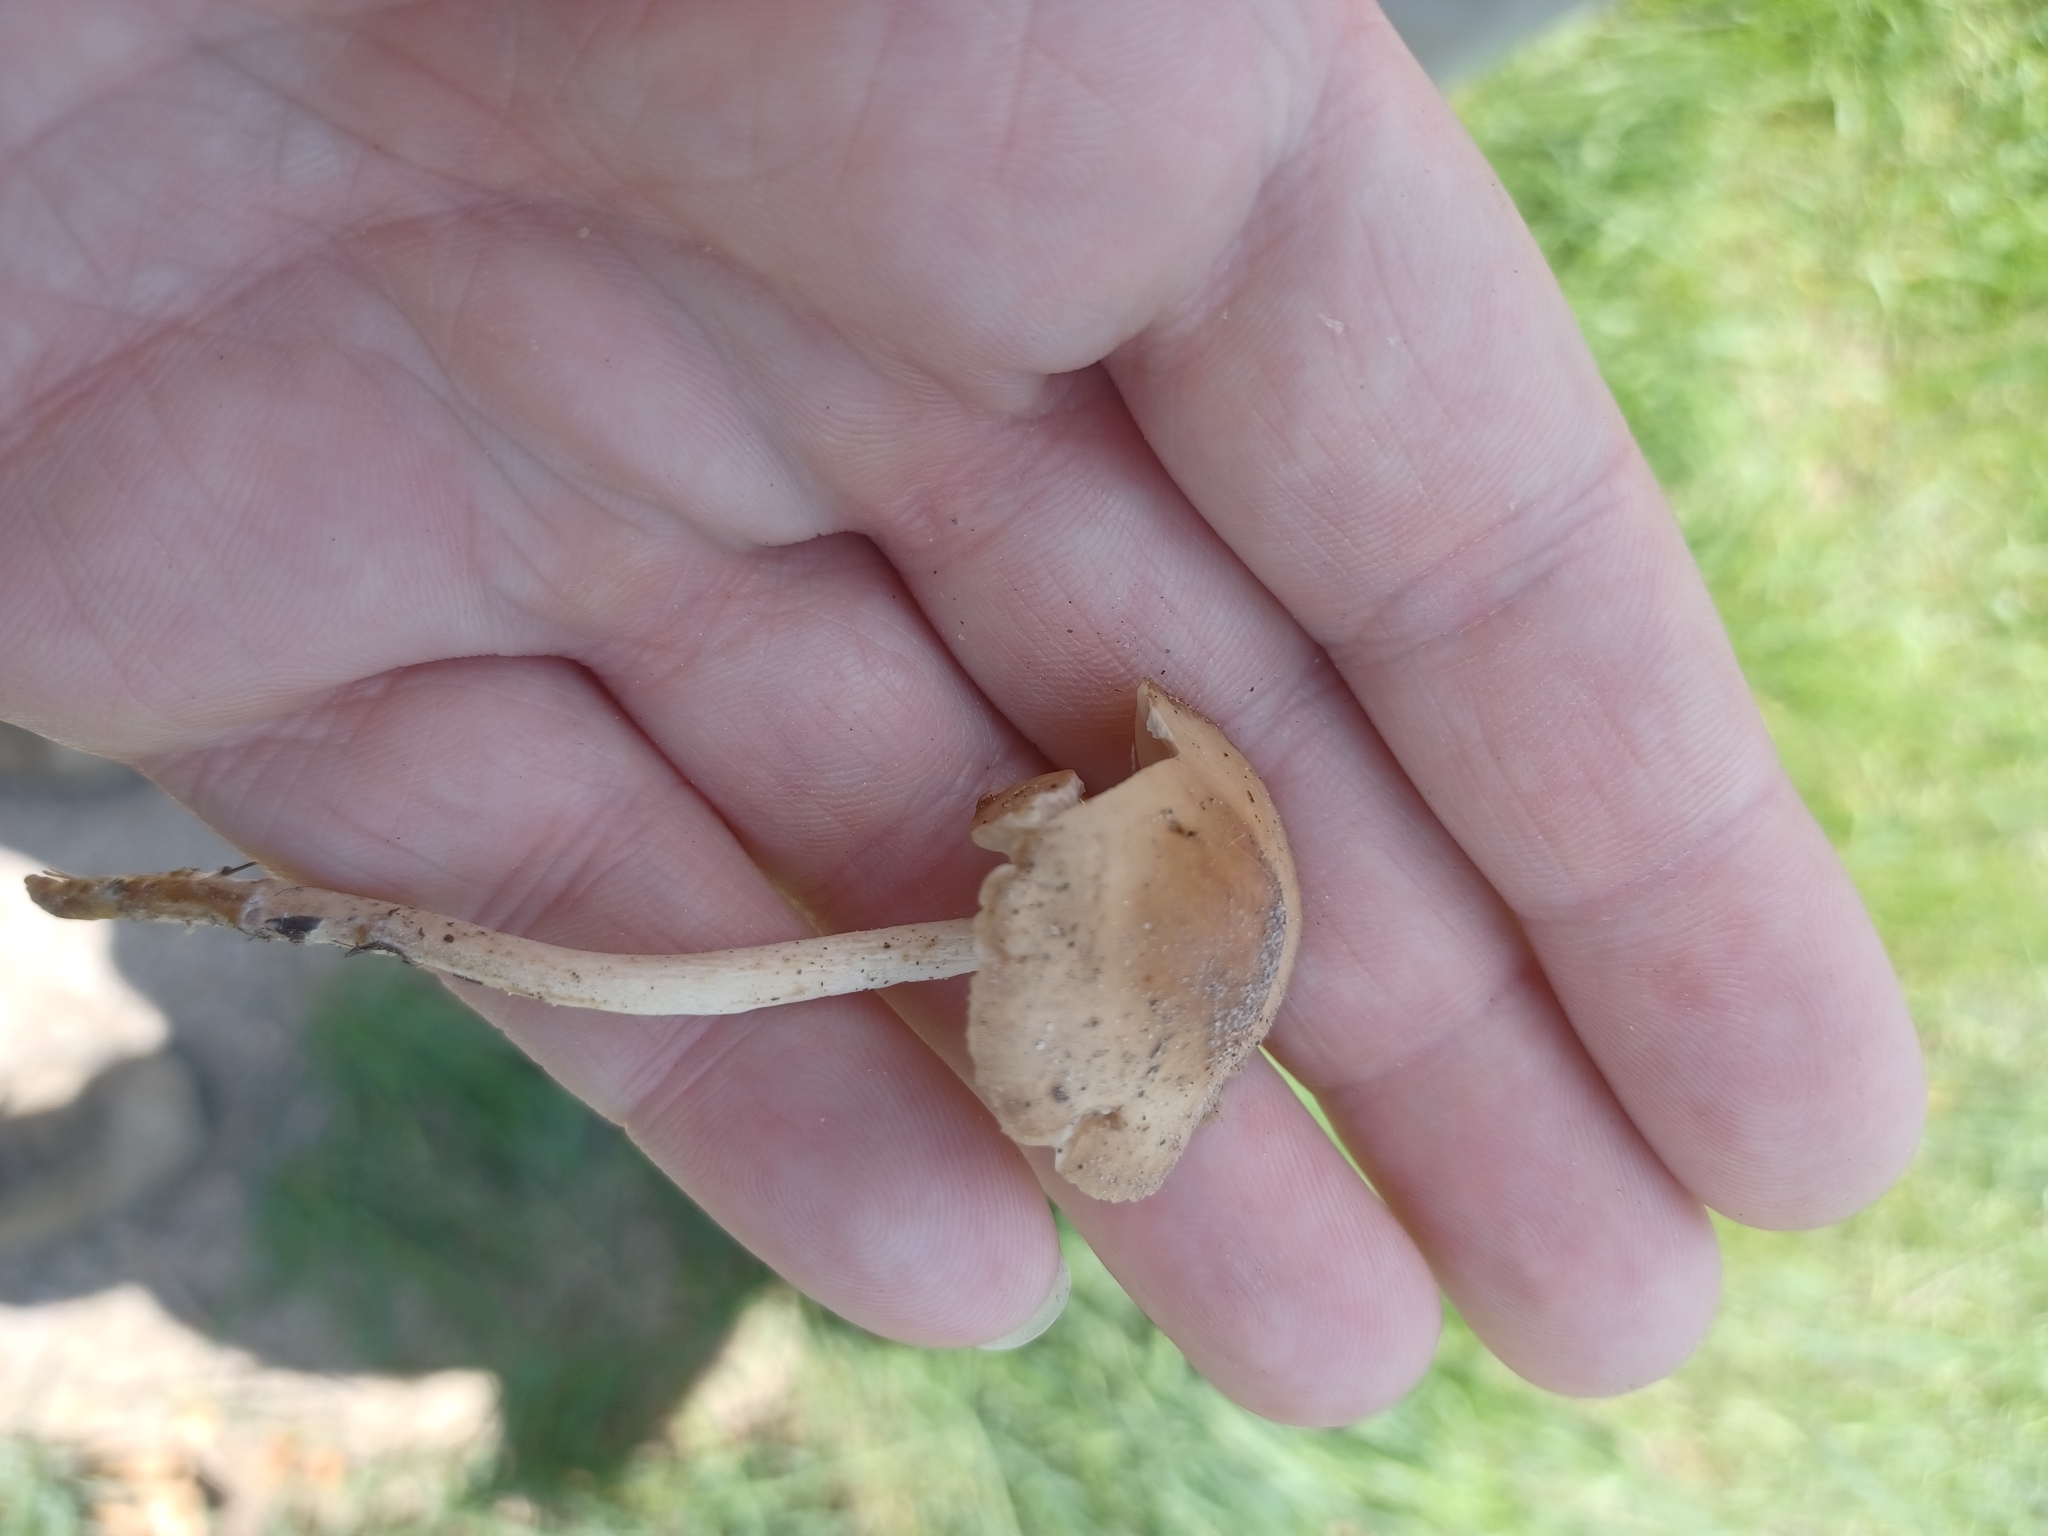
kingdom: Fungi
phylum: Basidiomycota
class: Agaricomycetes
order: Agaricales
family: Marasmiaceae
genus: Marasmius
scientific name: Marasmius oreades
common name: Fairy ring champignon
